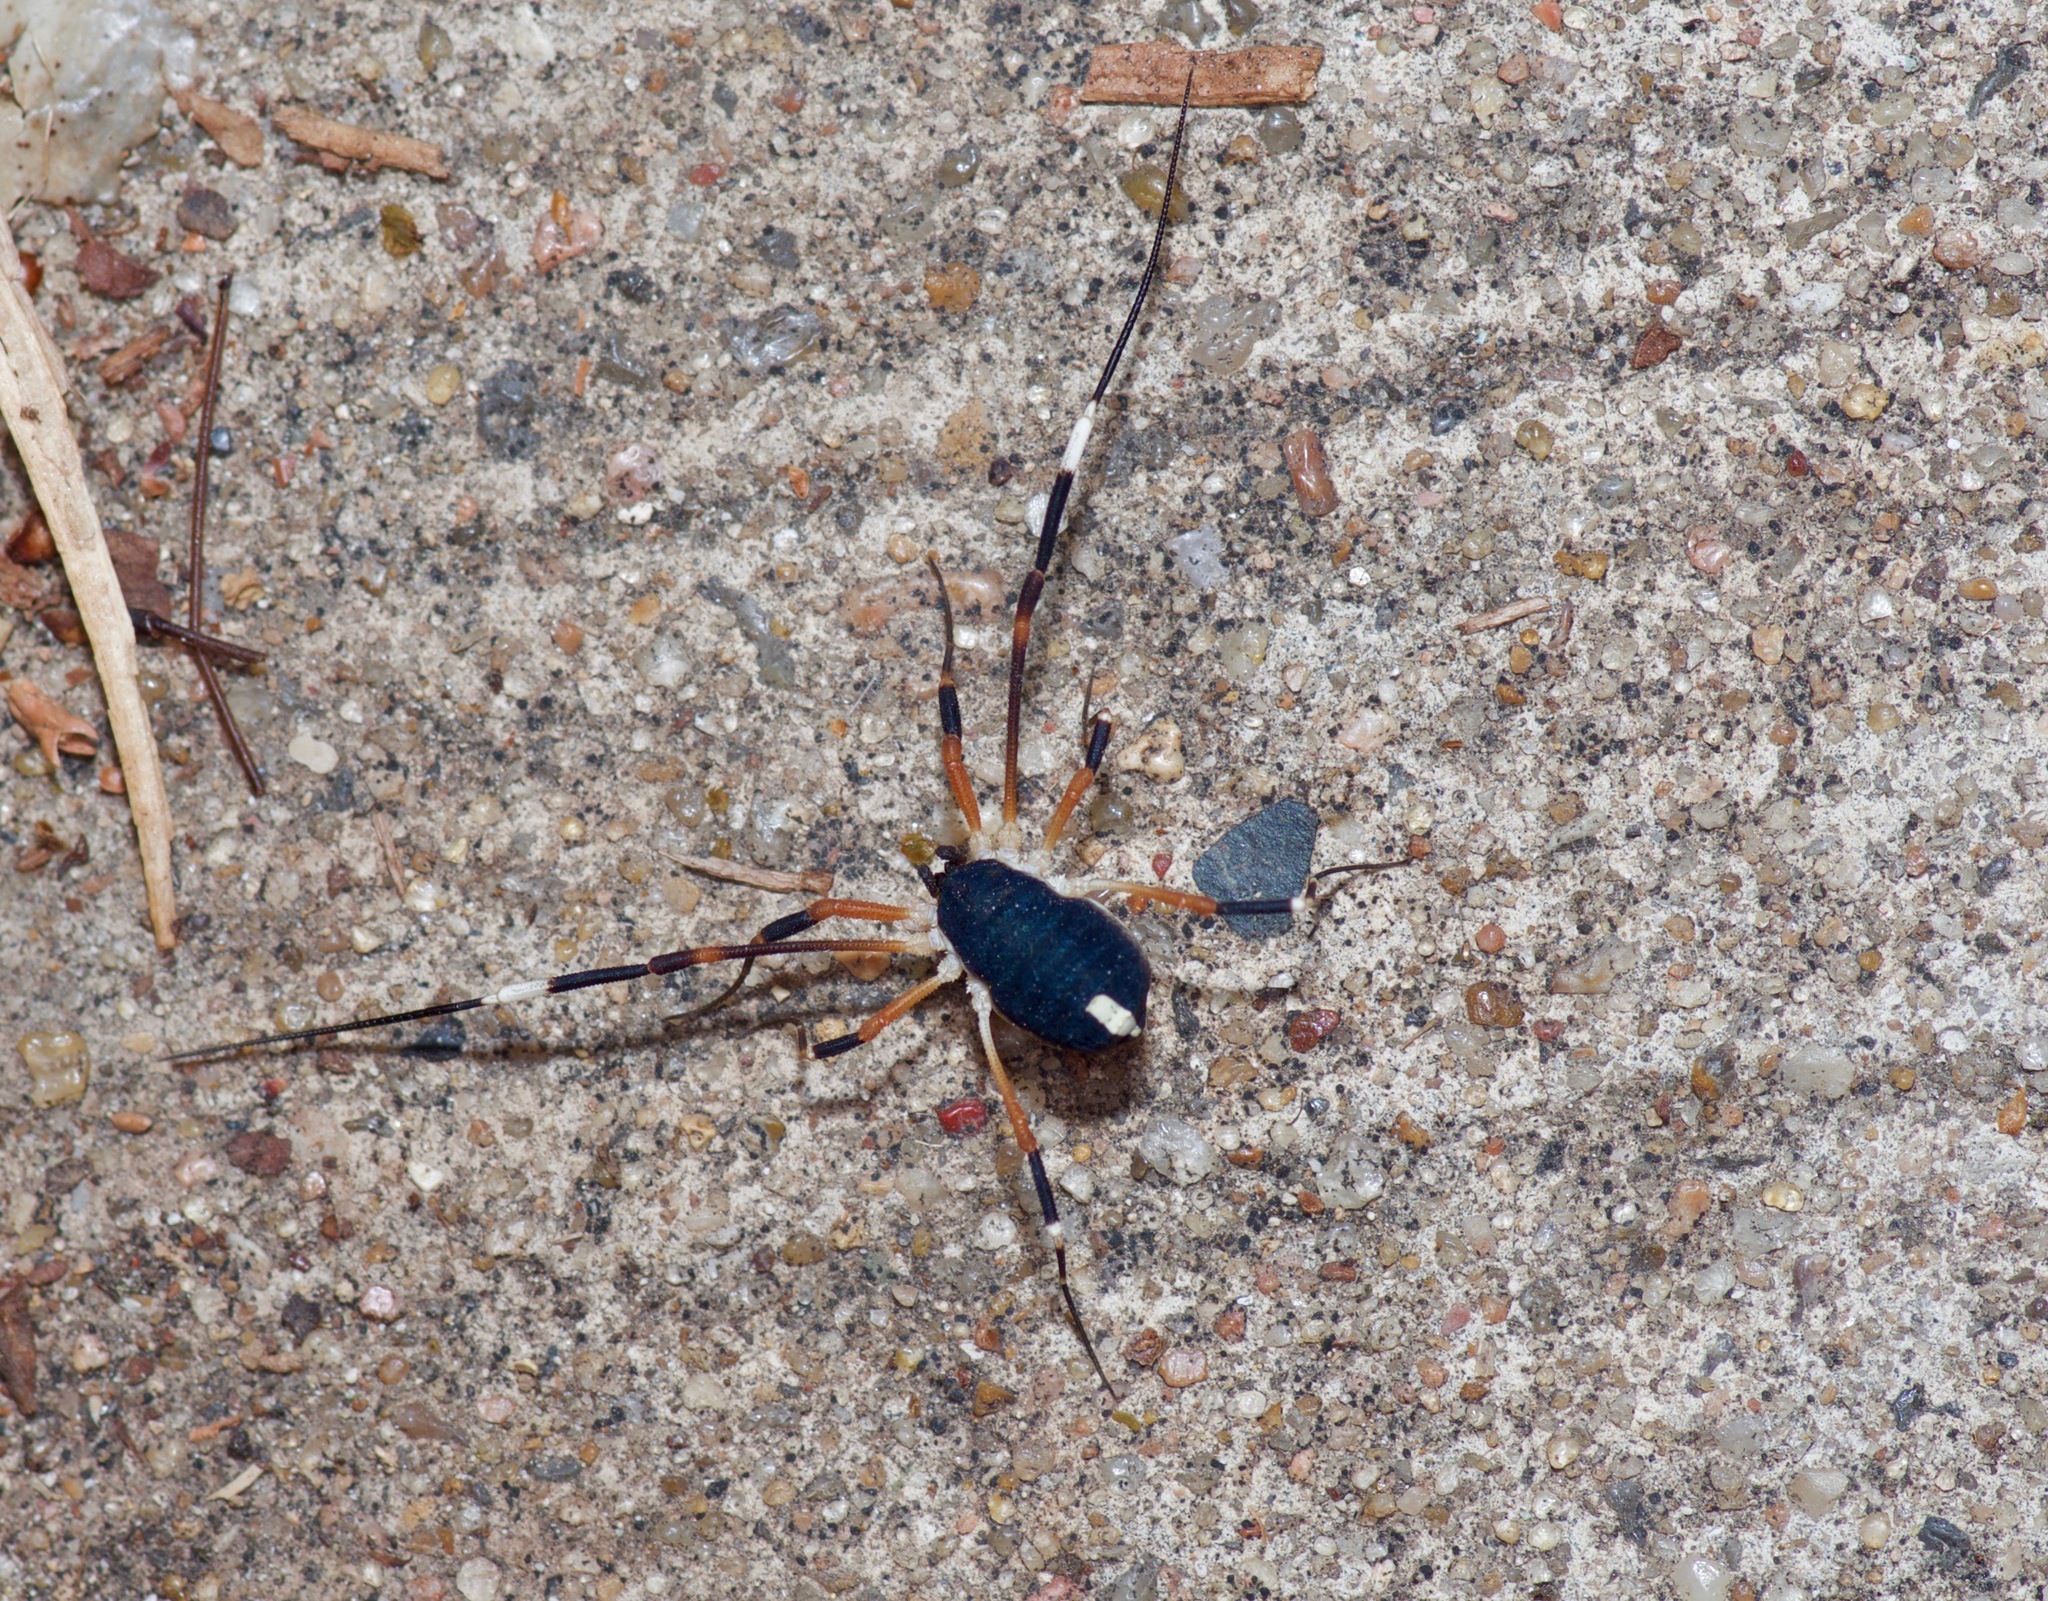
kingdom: Animalia
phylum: Arthropoda
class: Arachnida
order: Opiliones
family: Globipedidae
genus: Dalquestia
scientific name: Dalquestia formosa
